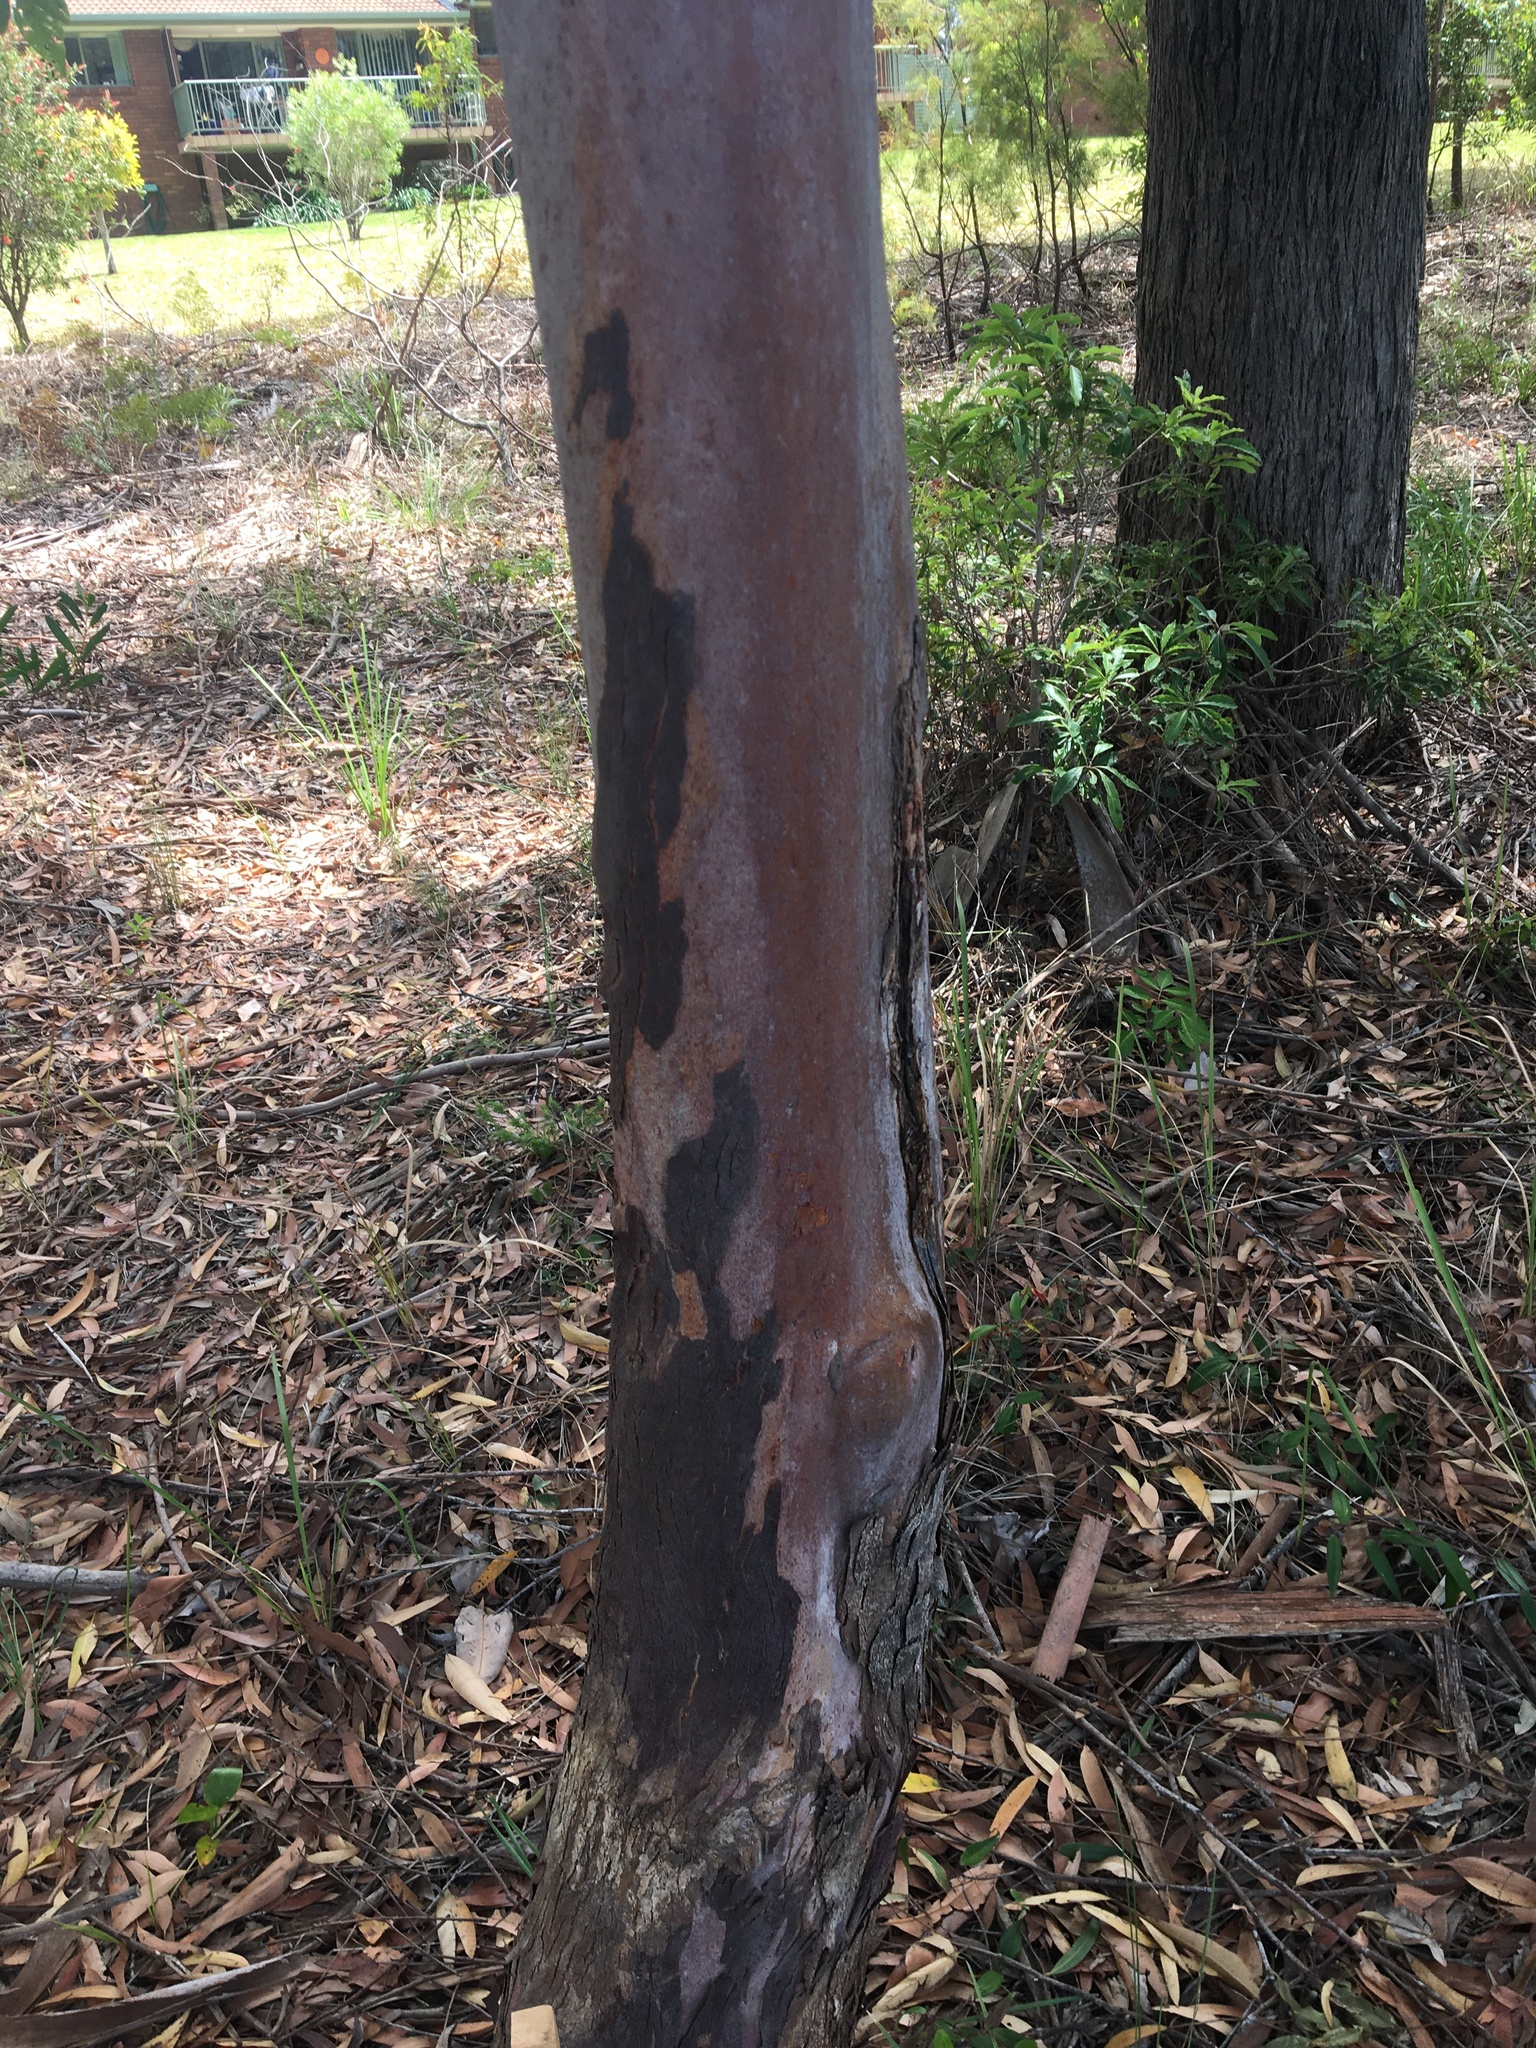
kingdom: Plantae
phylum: Tracheophyta
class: Magnoliopsida
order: Myrtales
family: Myrtaceae
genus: Lophostemon
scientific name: Lophostemon confertus
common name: Brisbane box
